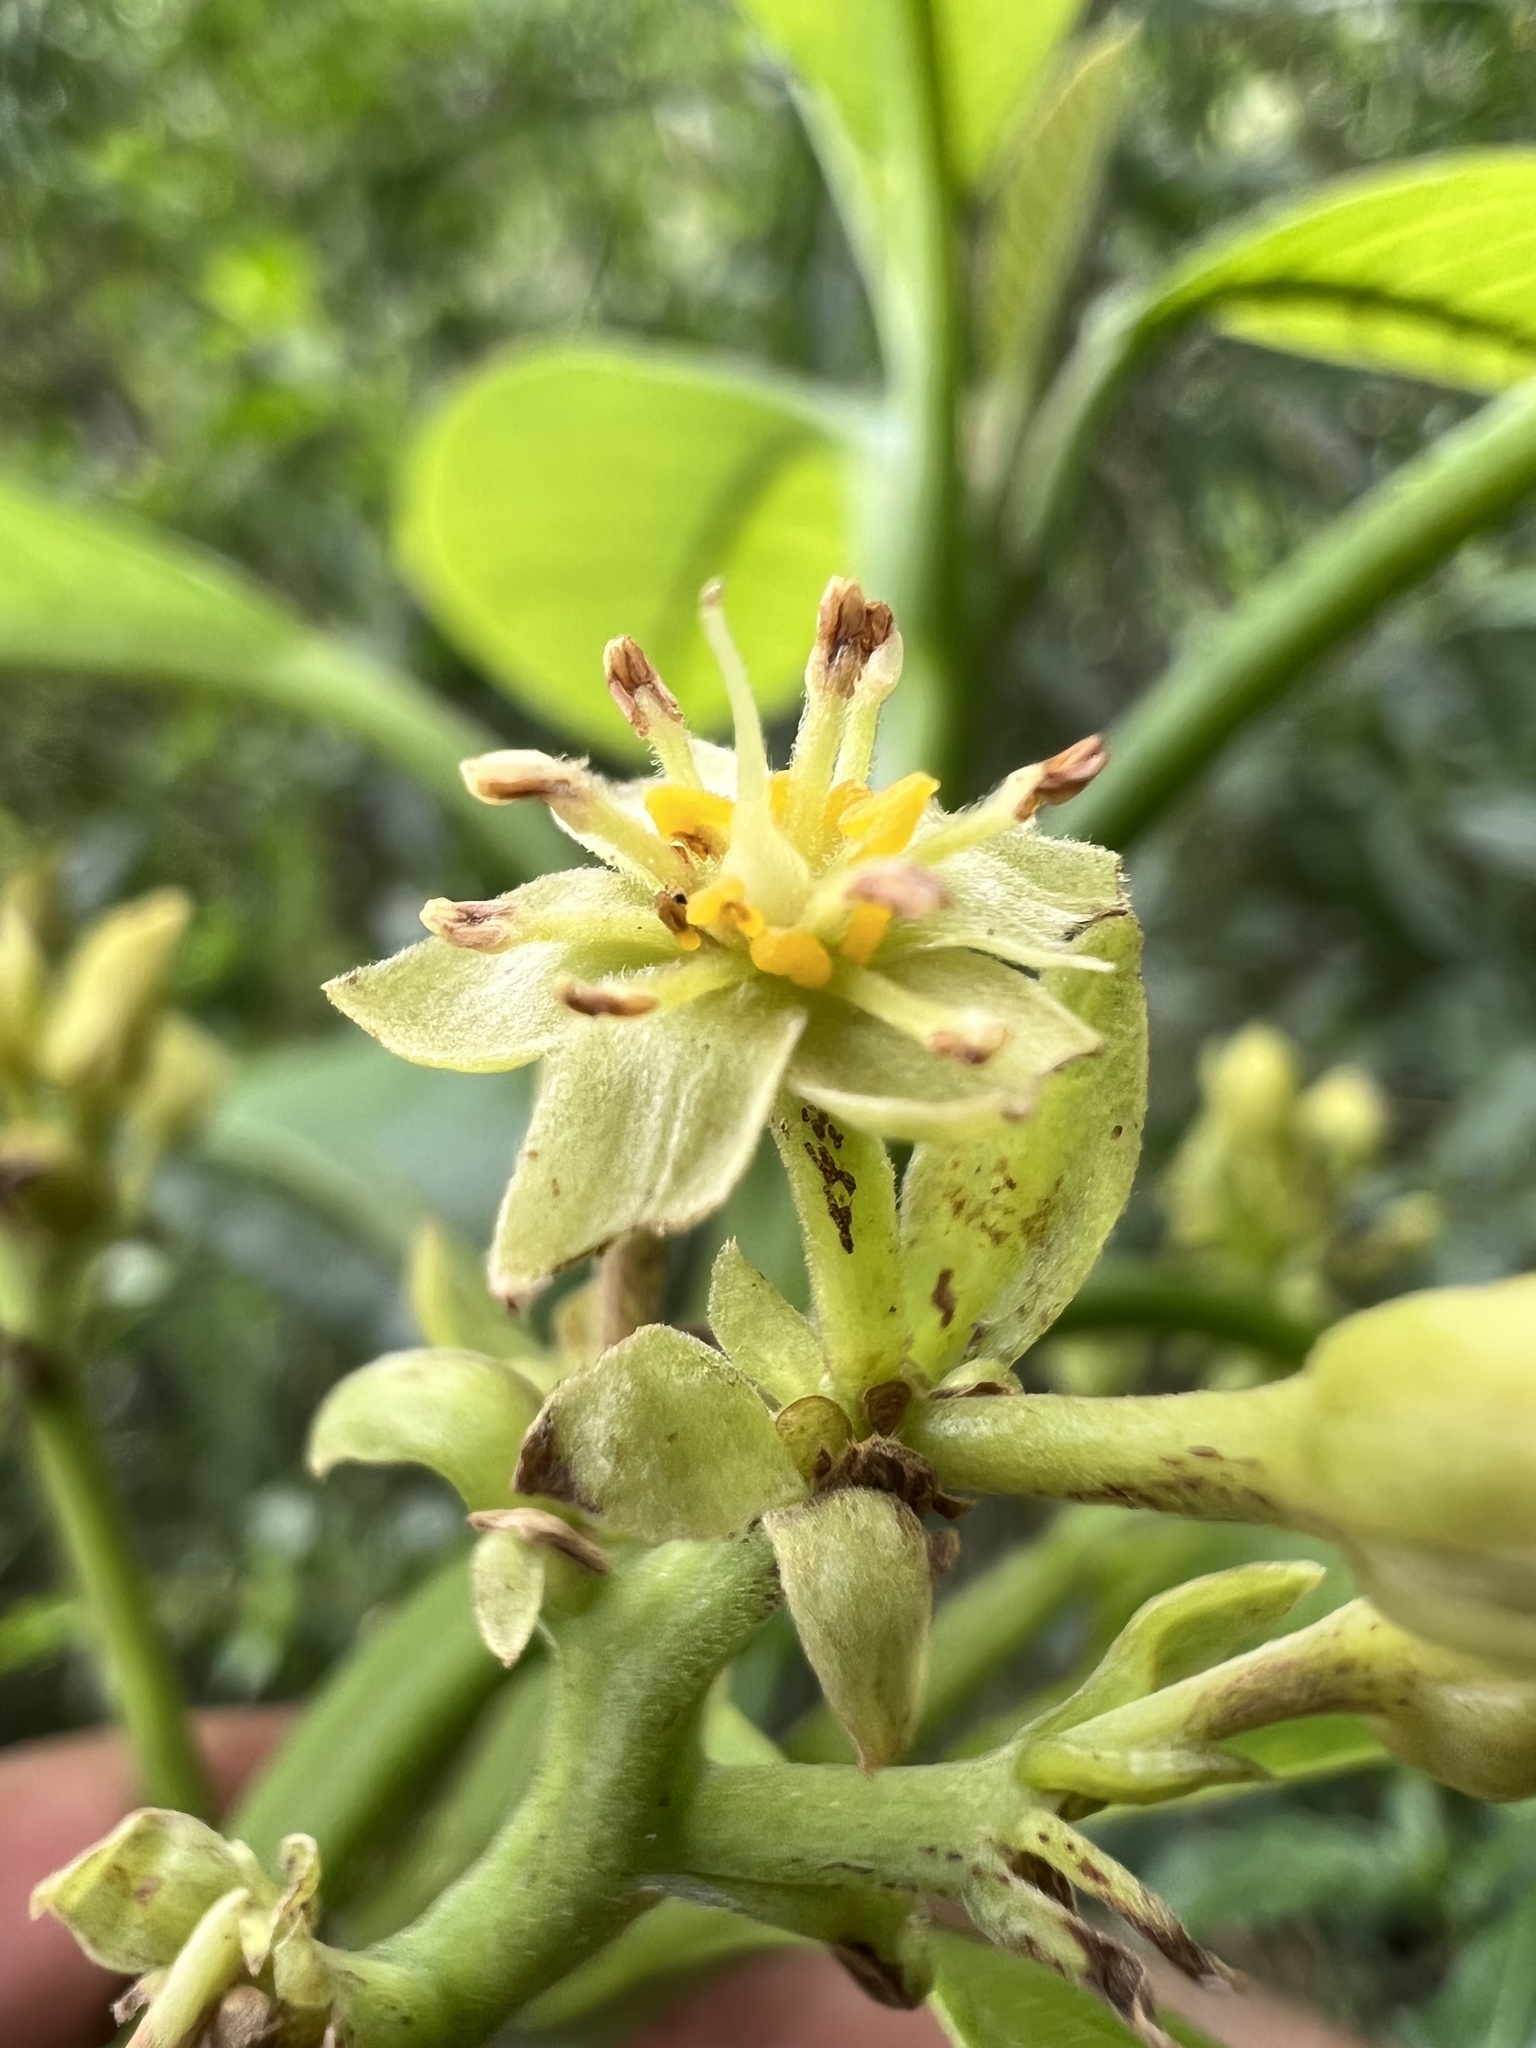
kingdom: Plantae
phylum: Tracheophyta
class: Magnoliopsida
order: Laurales
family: Lauraceae
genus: Persea
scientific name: Persea americana
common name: Avocado
